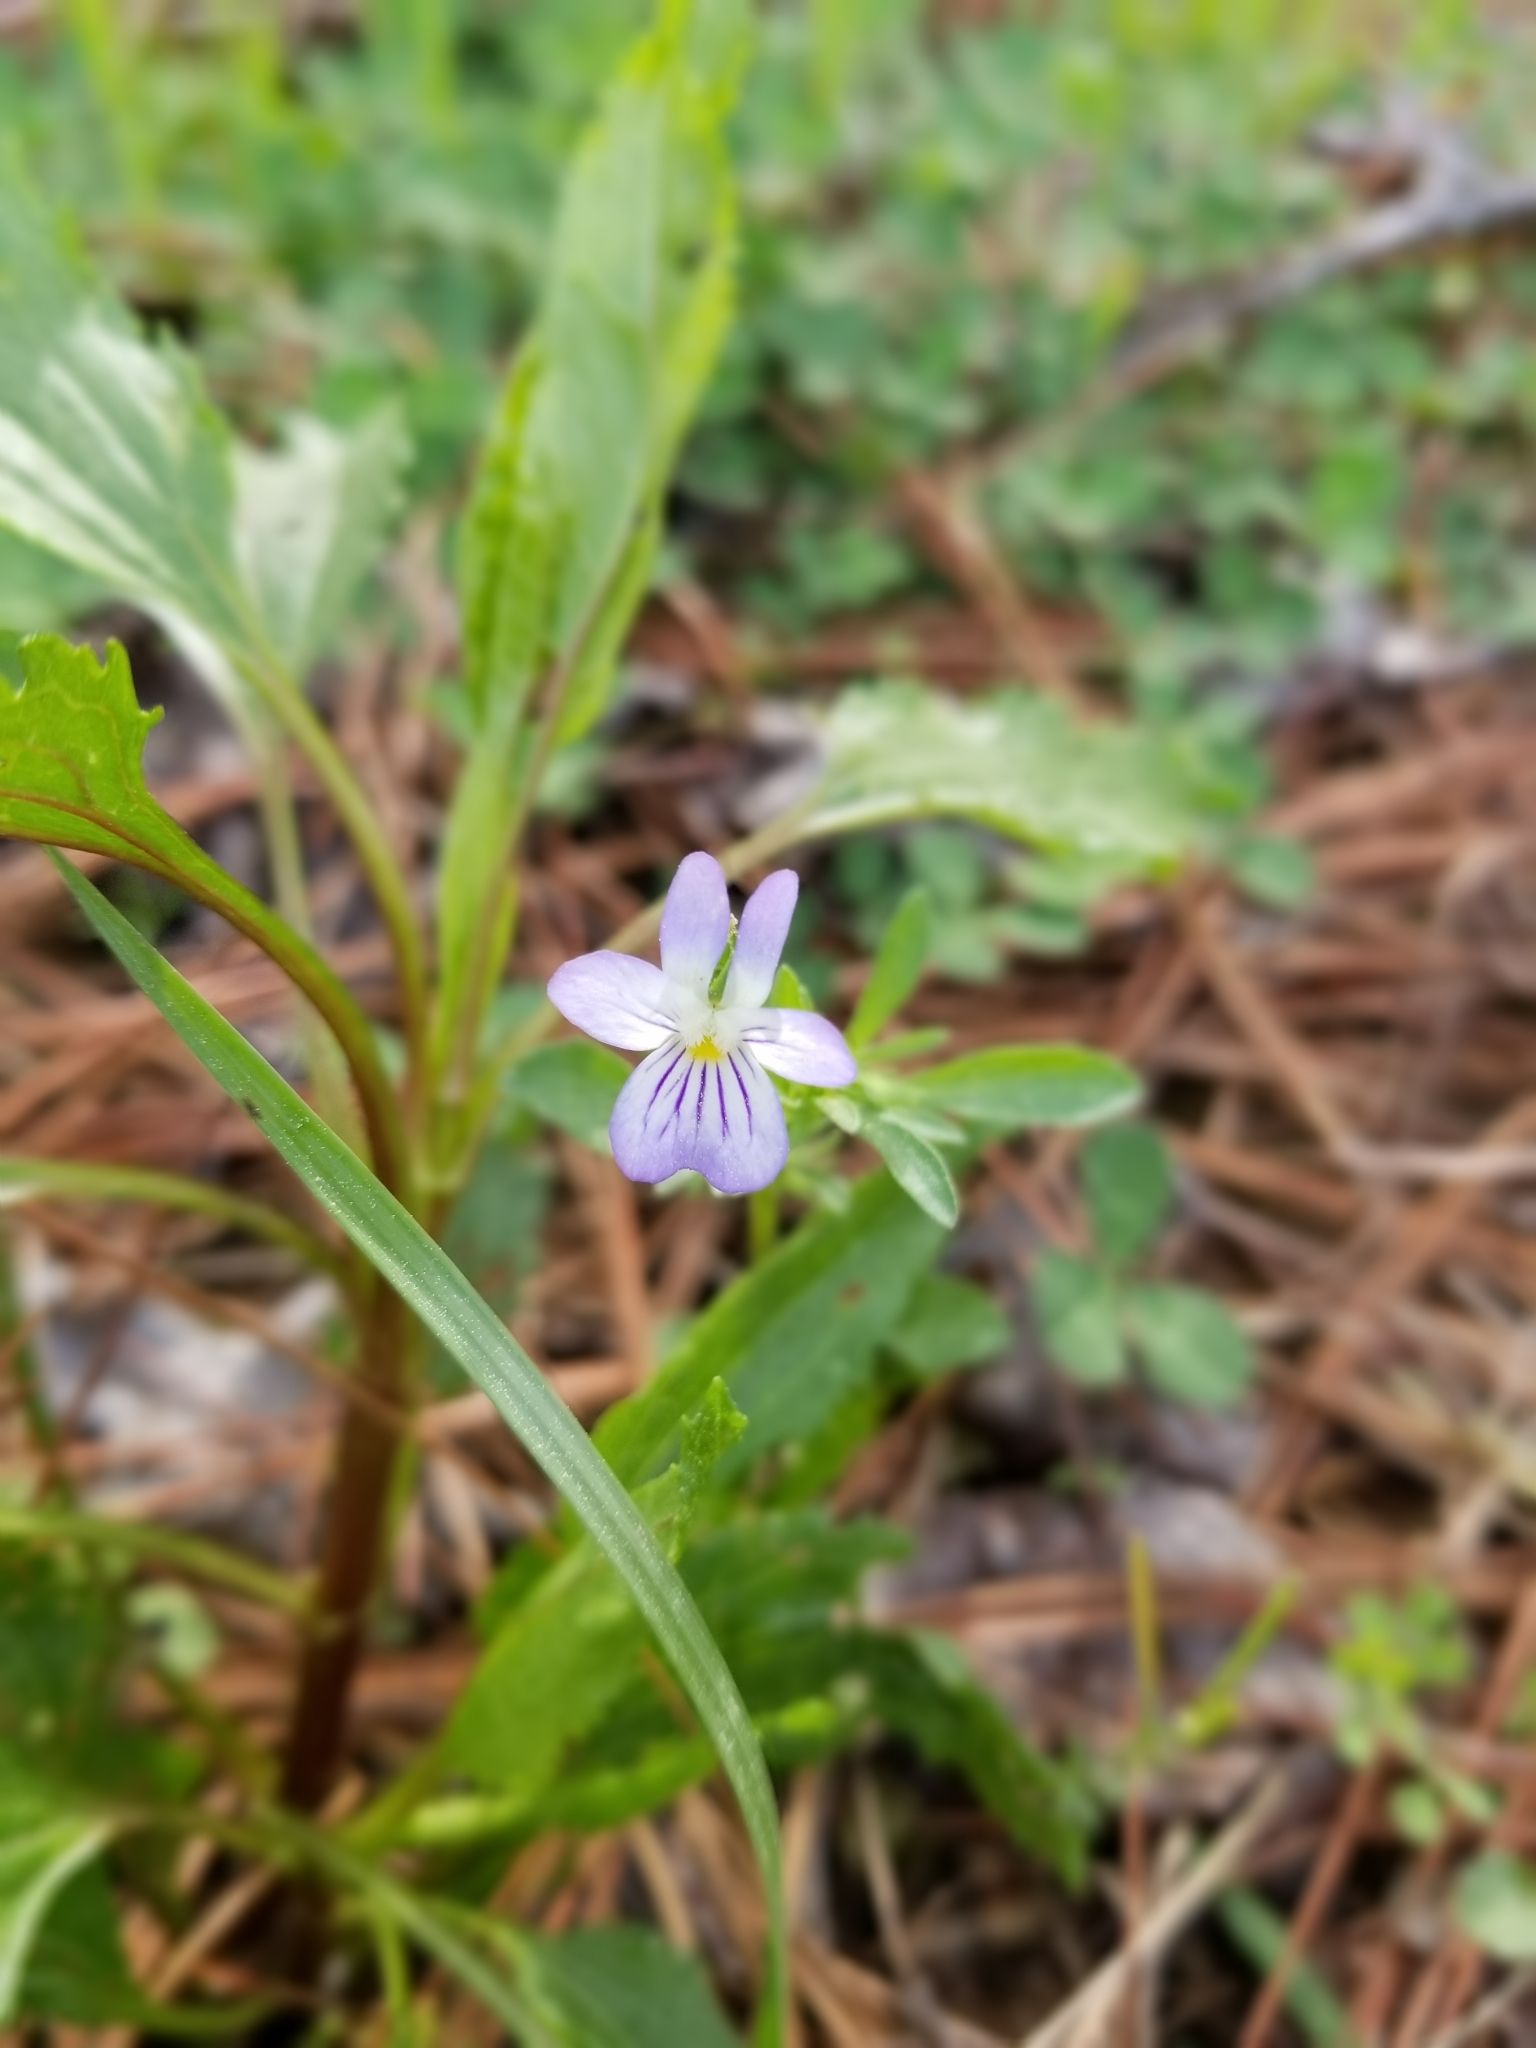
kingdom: Plantae
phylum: Tracheophyta
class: Magnoliopsida
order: Malpighiales
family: Violaceae
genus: Viola
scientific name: Viola rafinesquei
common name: American field pansy
